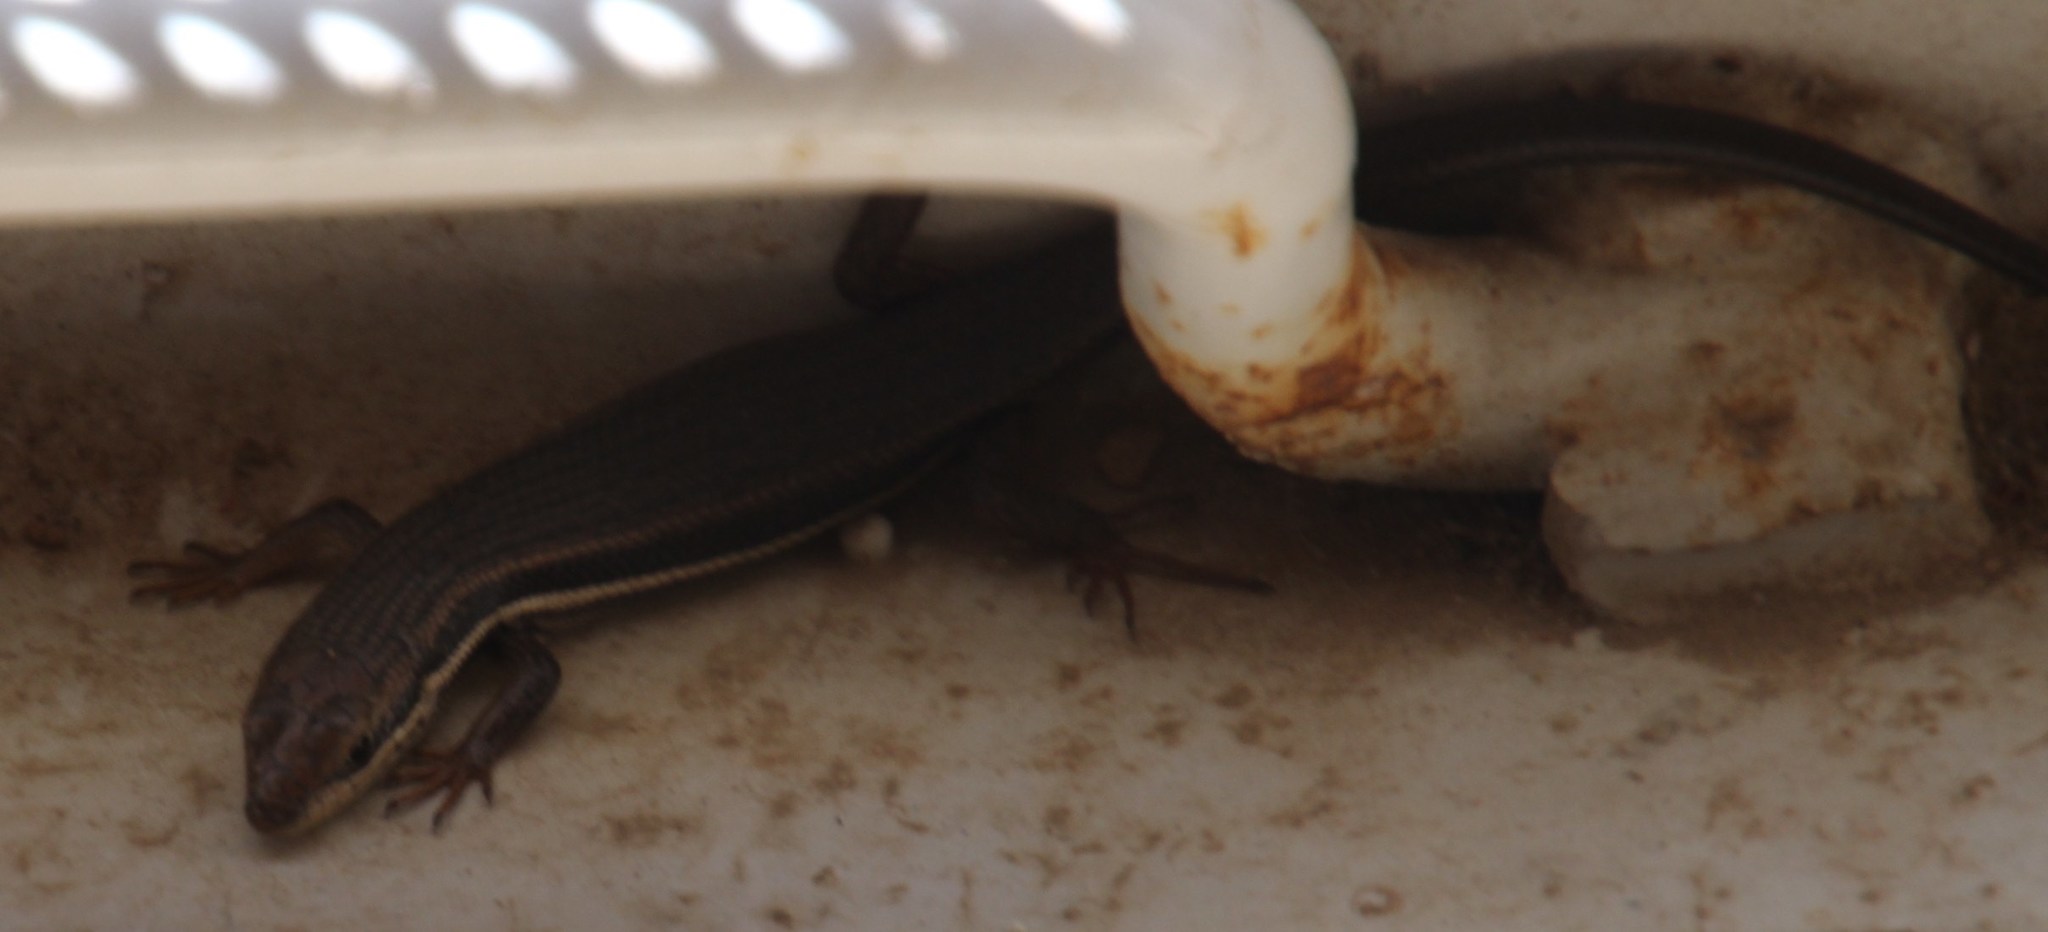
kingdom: Animalia
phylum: Chordata
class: Squamata
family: Scincidae
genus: Trachylepis
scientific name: Trachylepis homalocephala
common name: Red-sided skink
